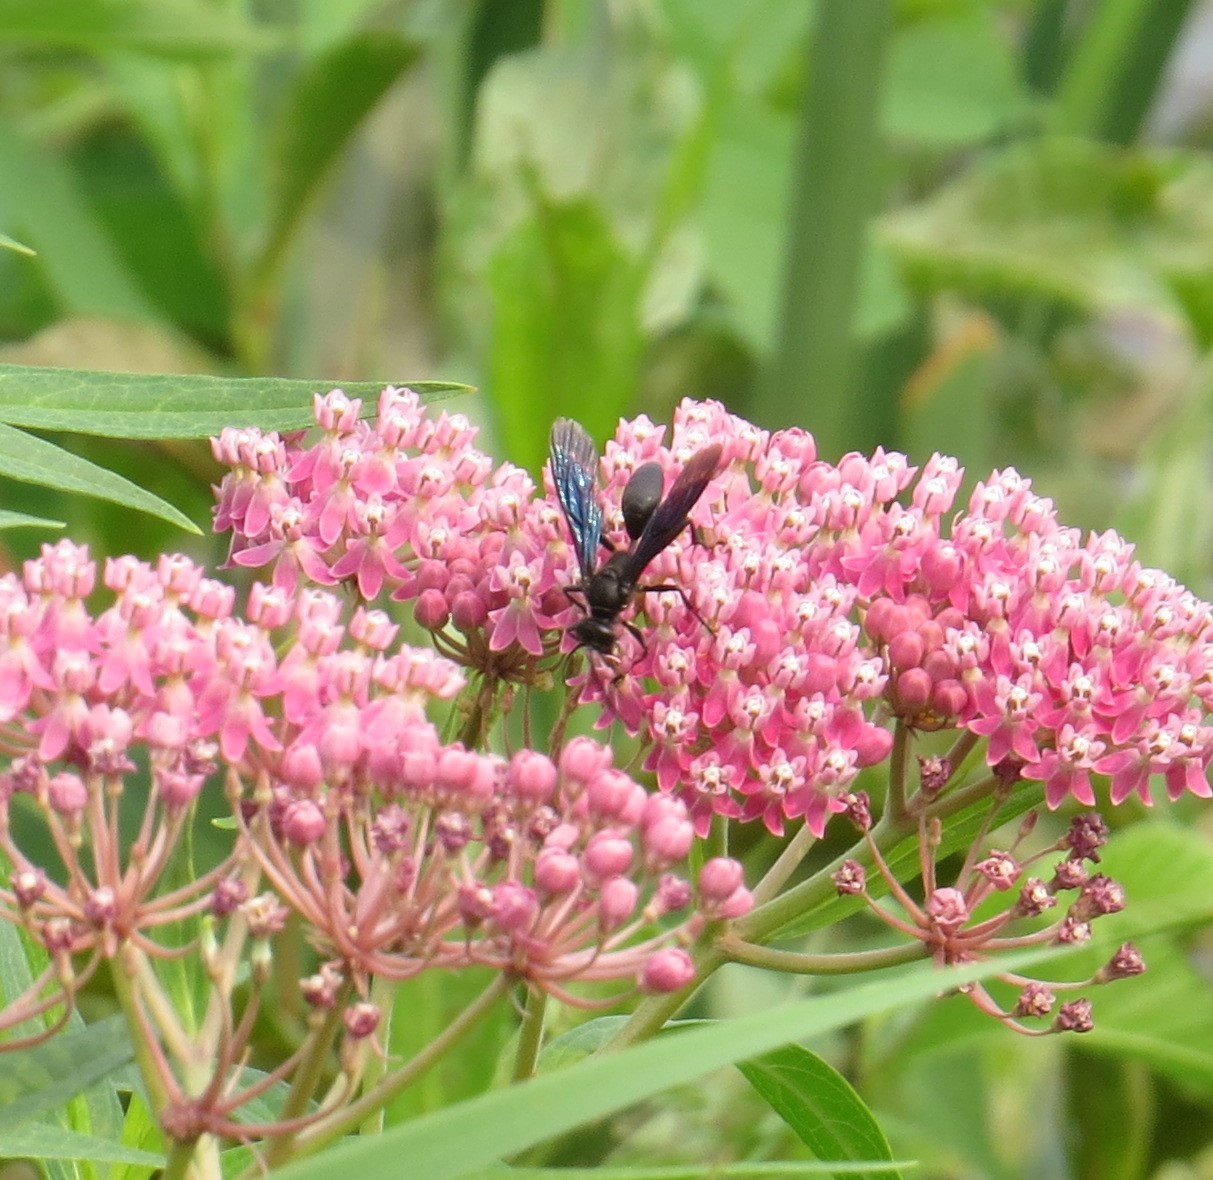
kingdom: Animalia
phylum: Arthropoda
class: Insecta
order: Hymenoptera
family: Sphecidae
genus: Sphex
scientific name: Sphex pensylvanicus
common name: Great black digger wasp
